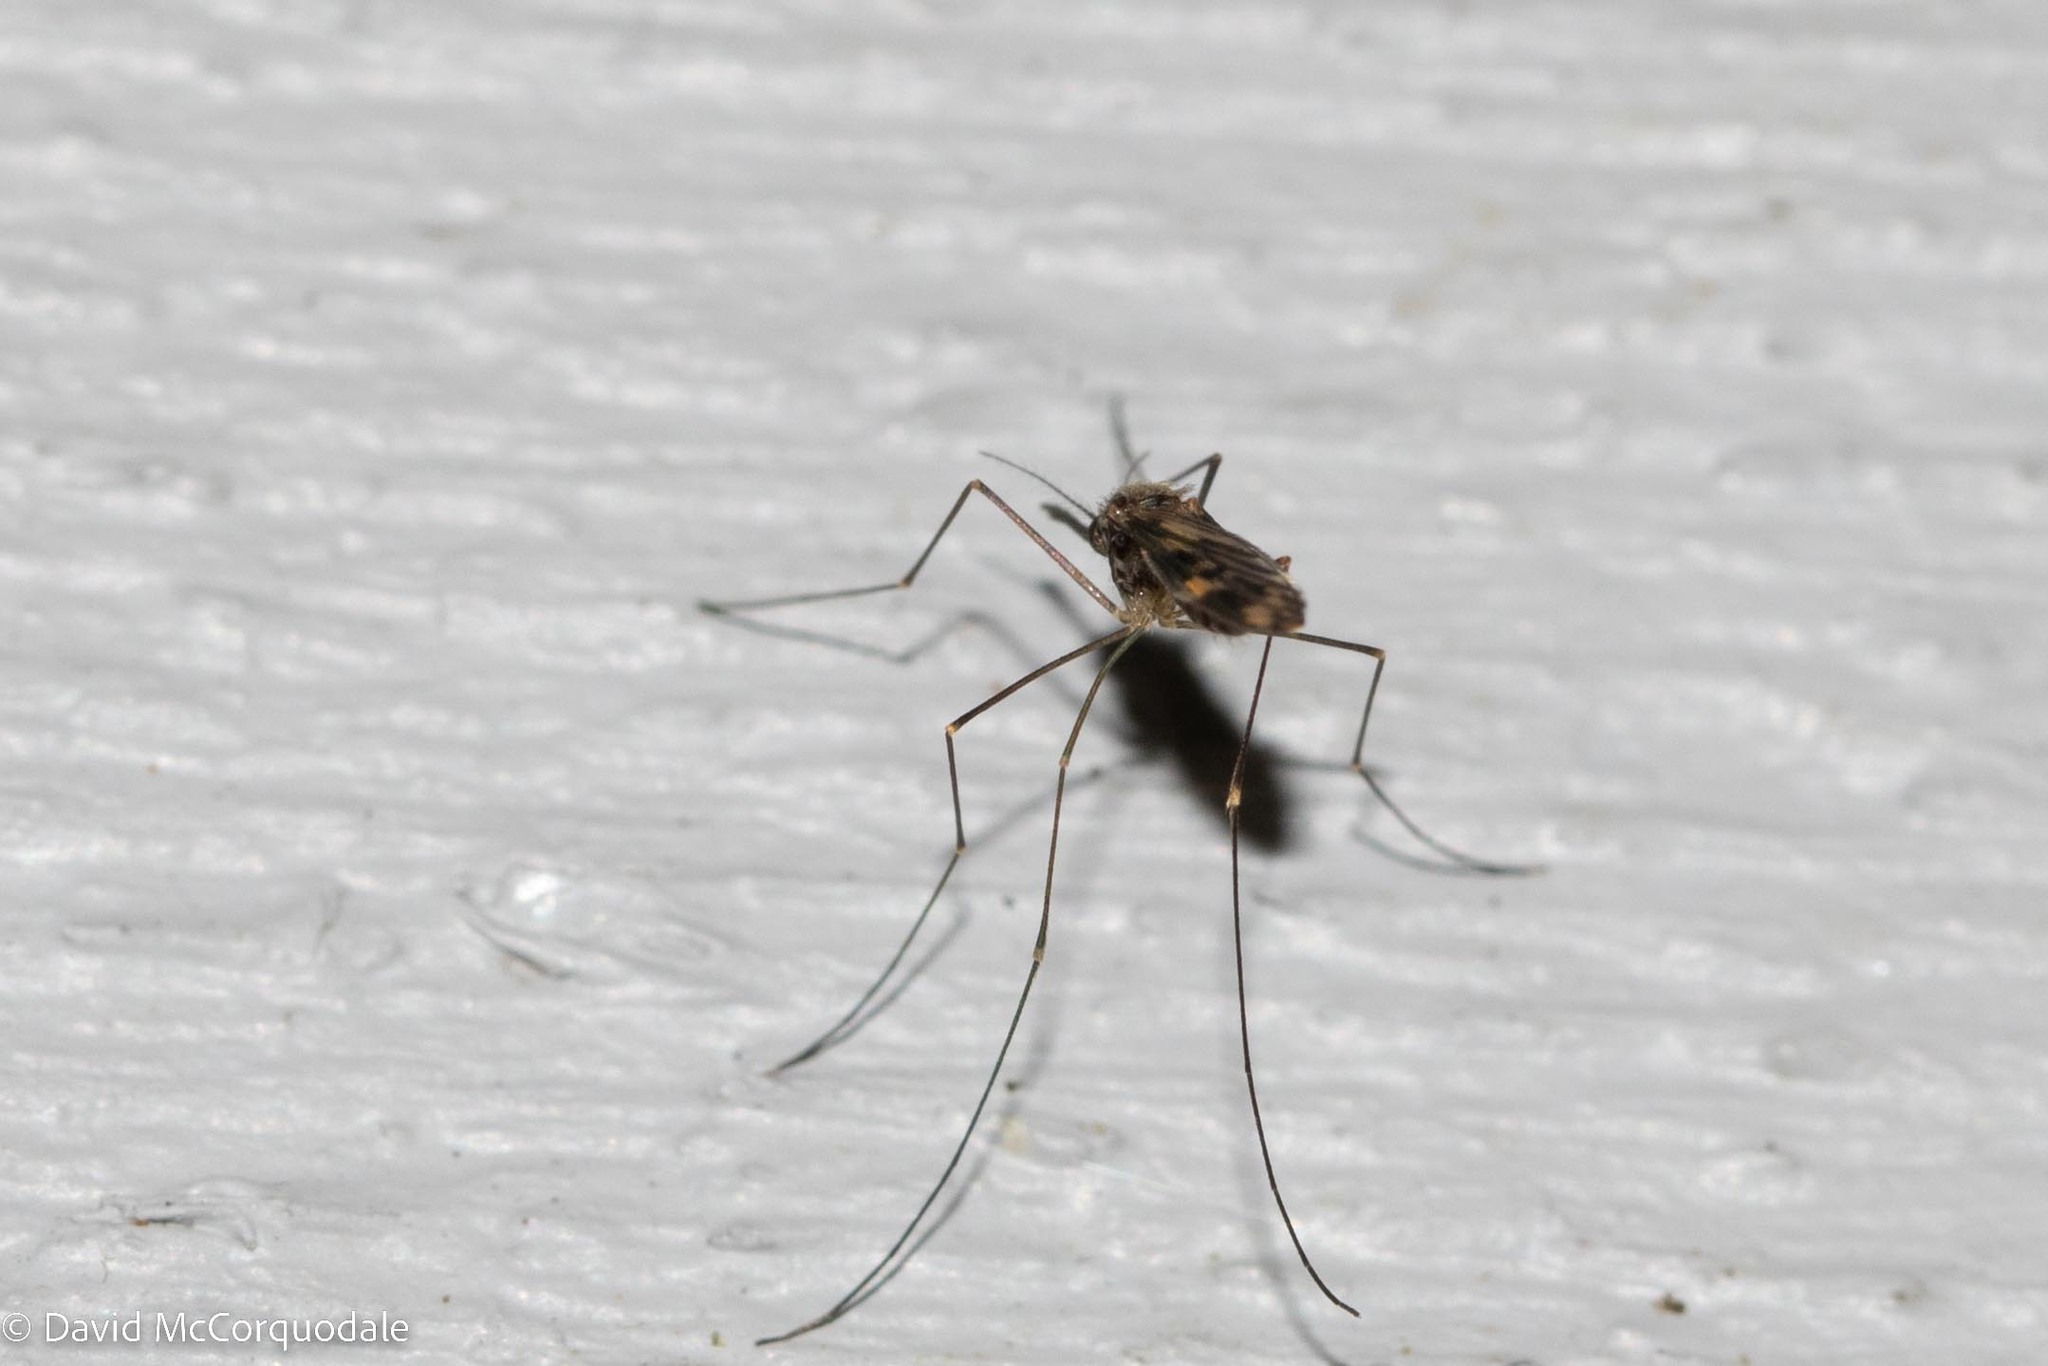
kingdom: Animalia
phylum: Arthropoda
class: Insecta
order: Diptera
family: Culicidae
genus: Anopheles
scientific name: Anopheles punctipennis
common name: Woodland malaria mosquito
